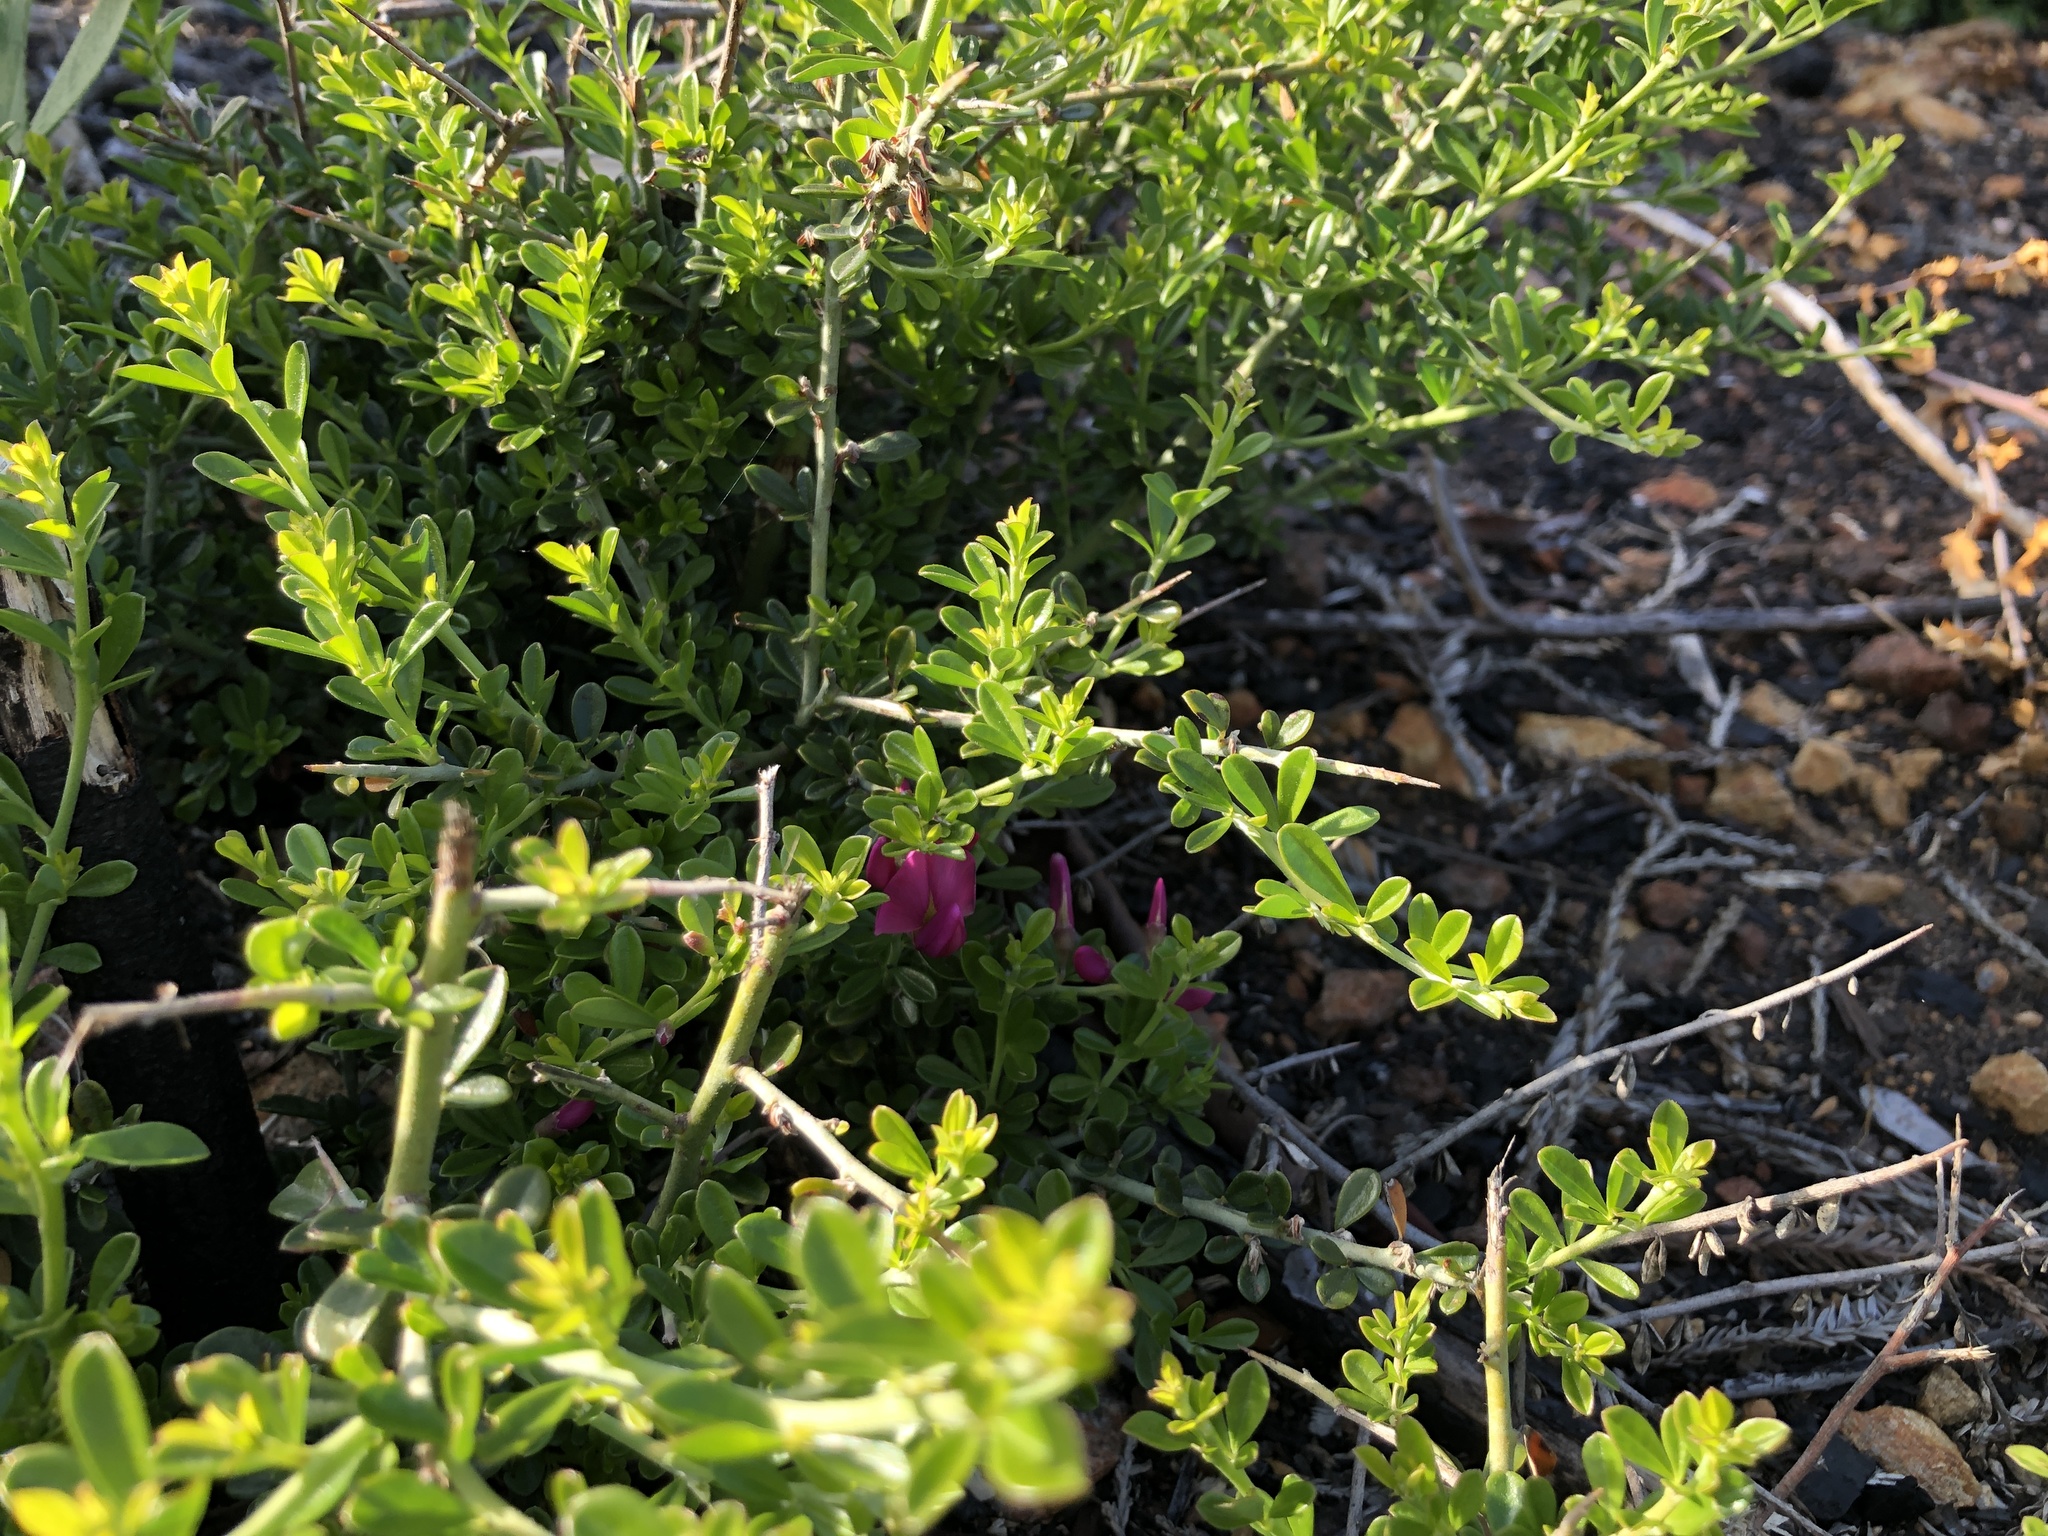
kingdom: Plantae
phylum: Tracheophyta
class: Magnoliopsida
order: Fabales
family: Fabaceae
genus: Pickeringia
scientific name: Pickeringia montana
